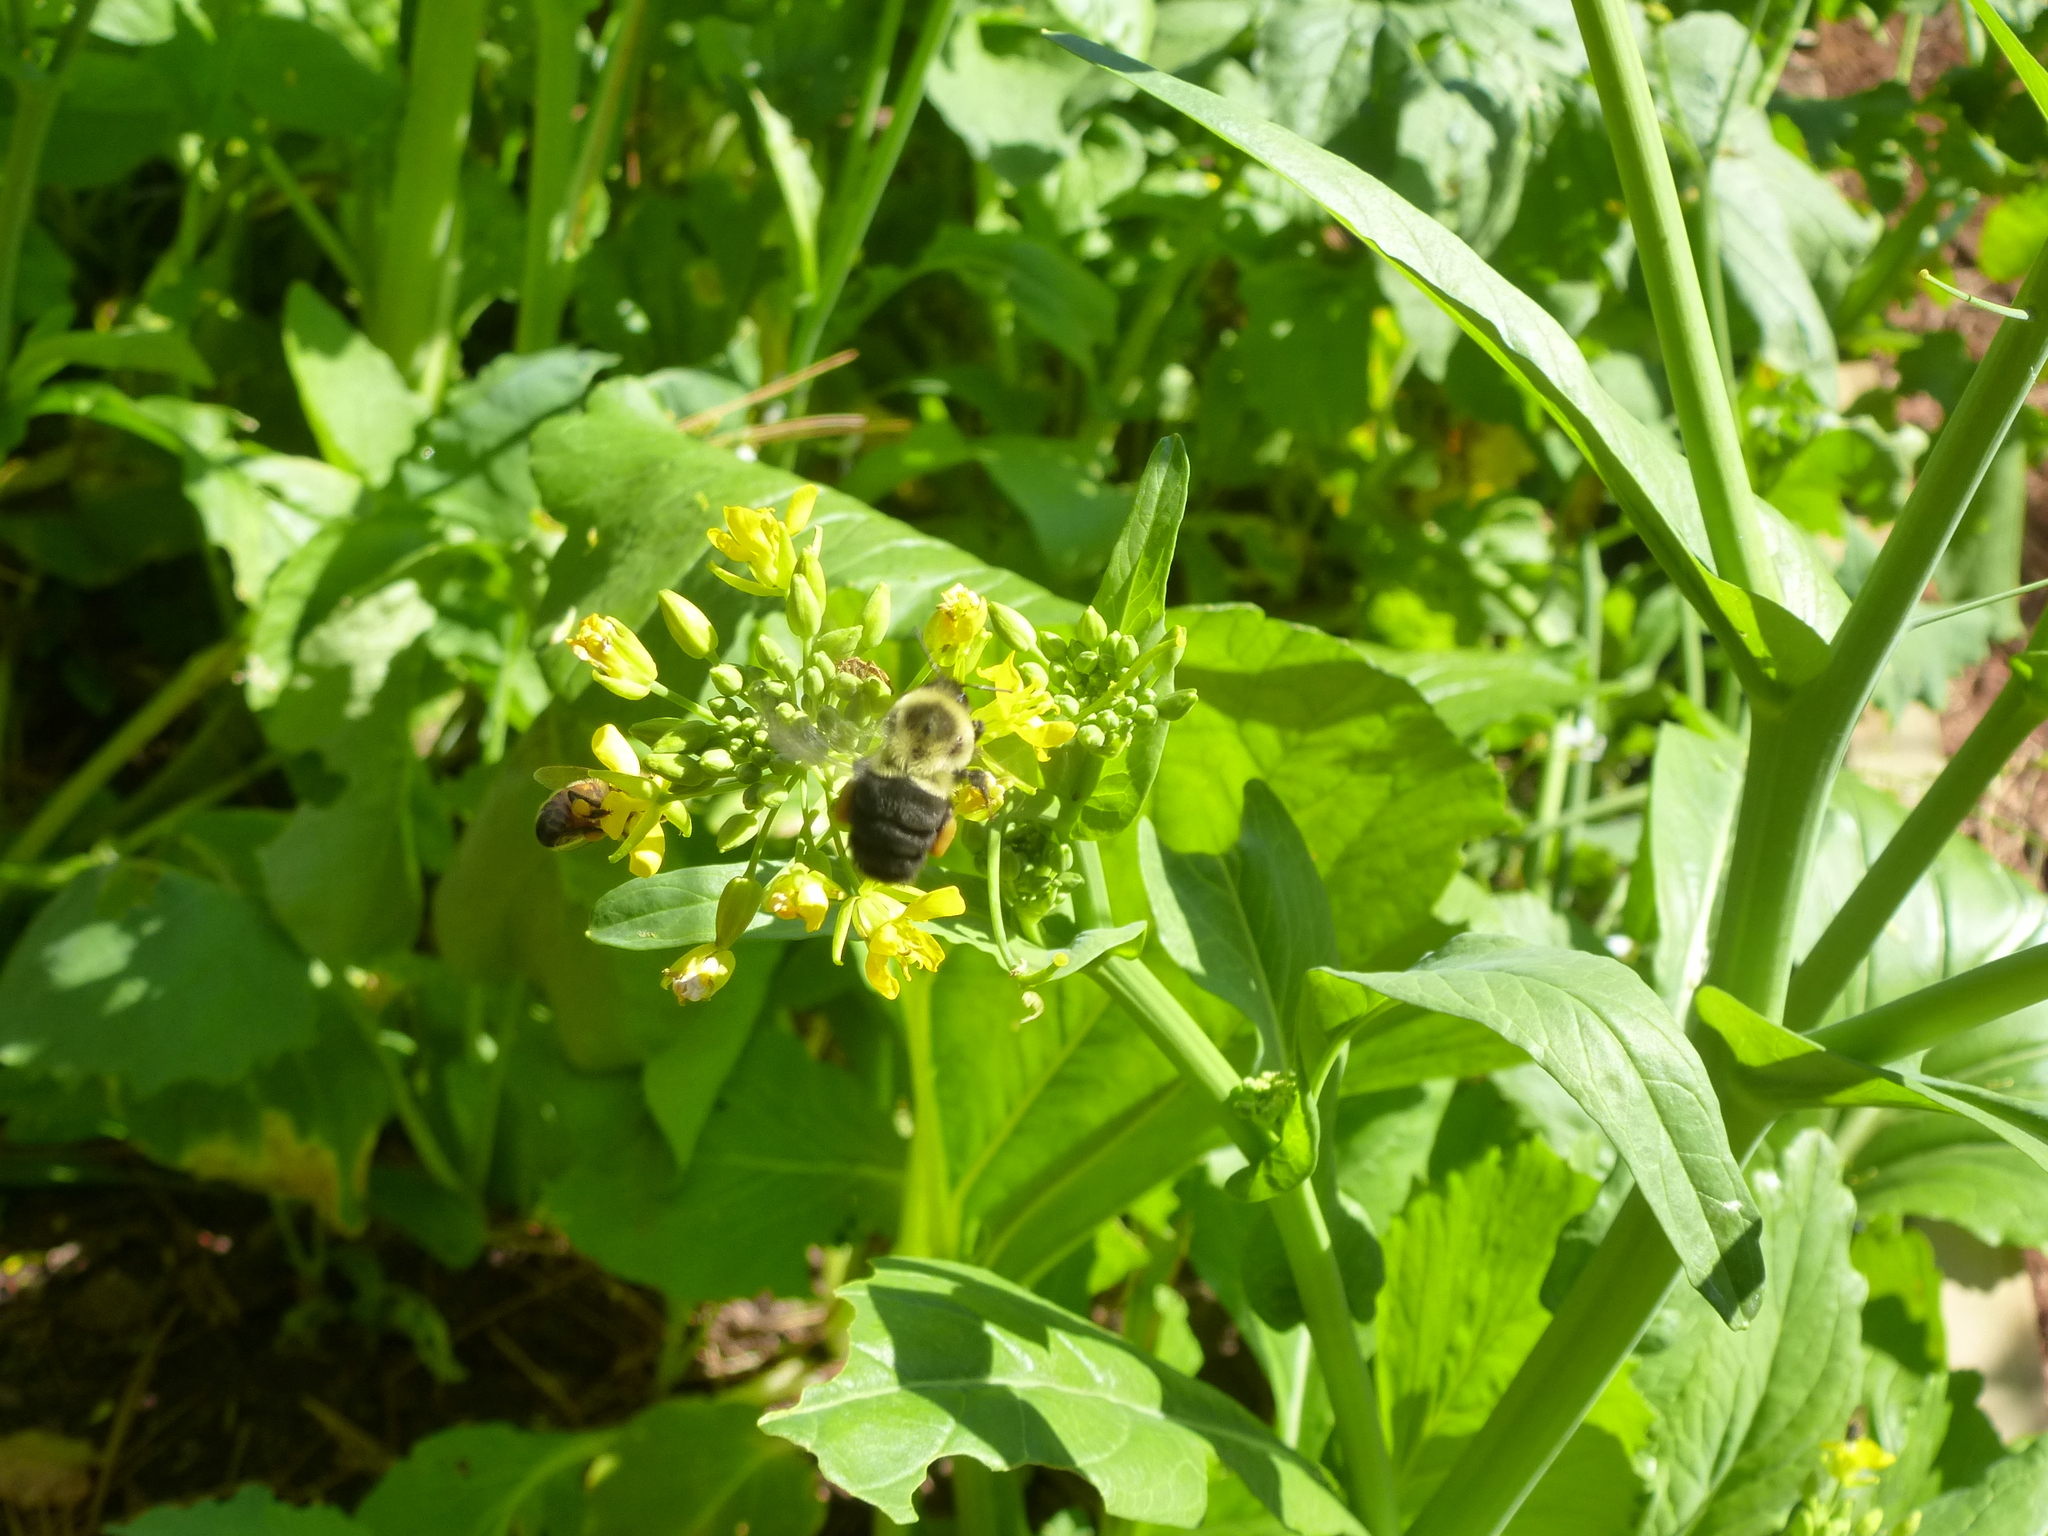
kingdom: Animalia
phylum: Arthropoda
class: Insecta
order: Hymenoptera
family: Apidae
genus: Bombus
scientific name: Bombus impatiens
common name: Common eastern bumble bee
